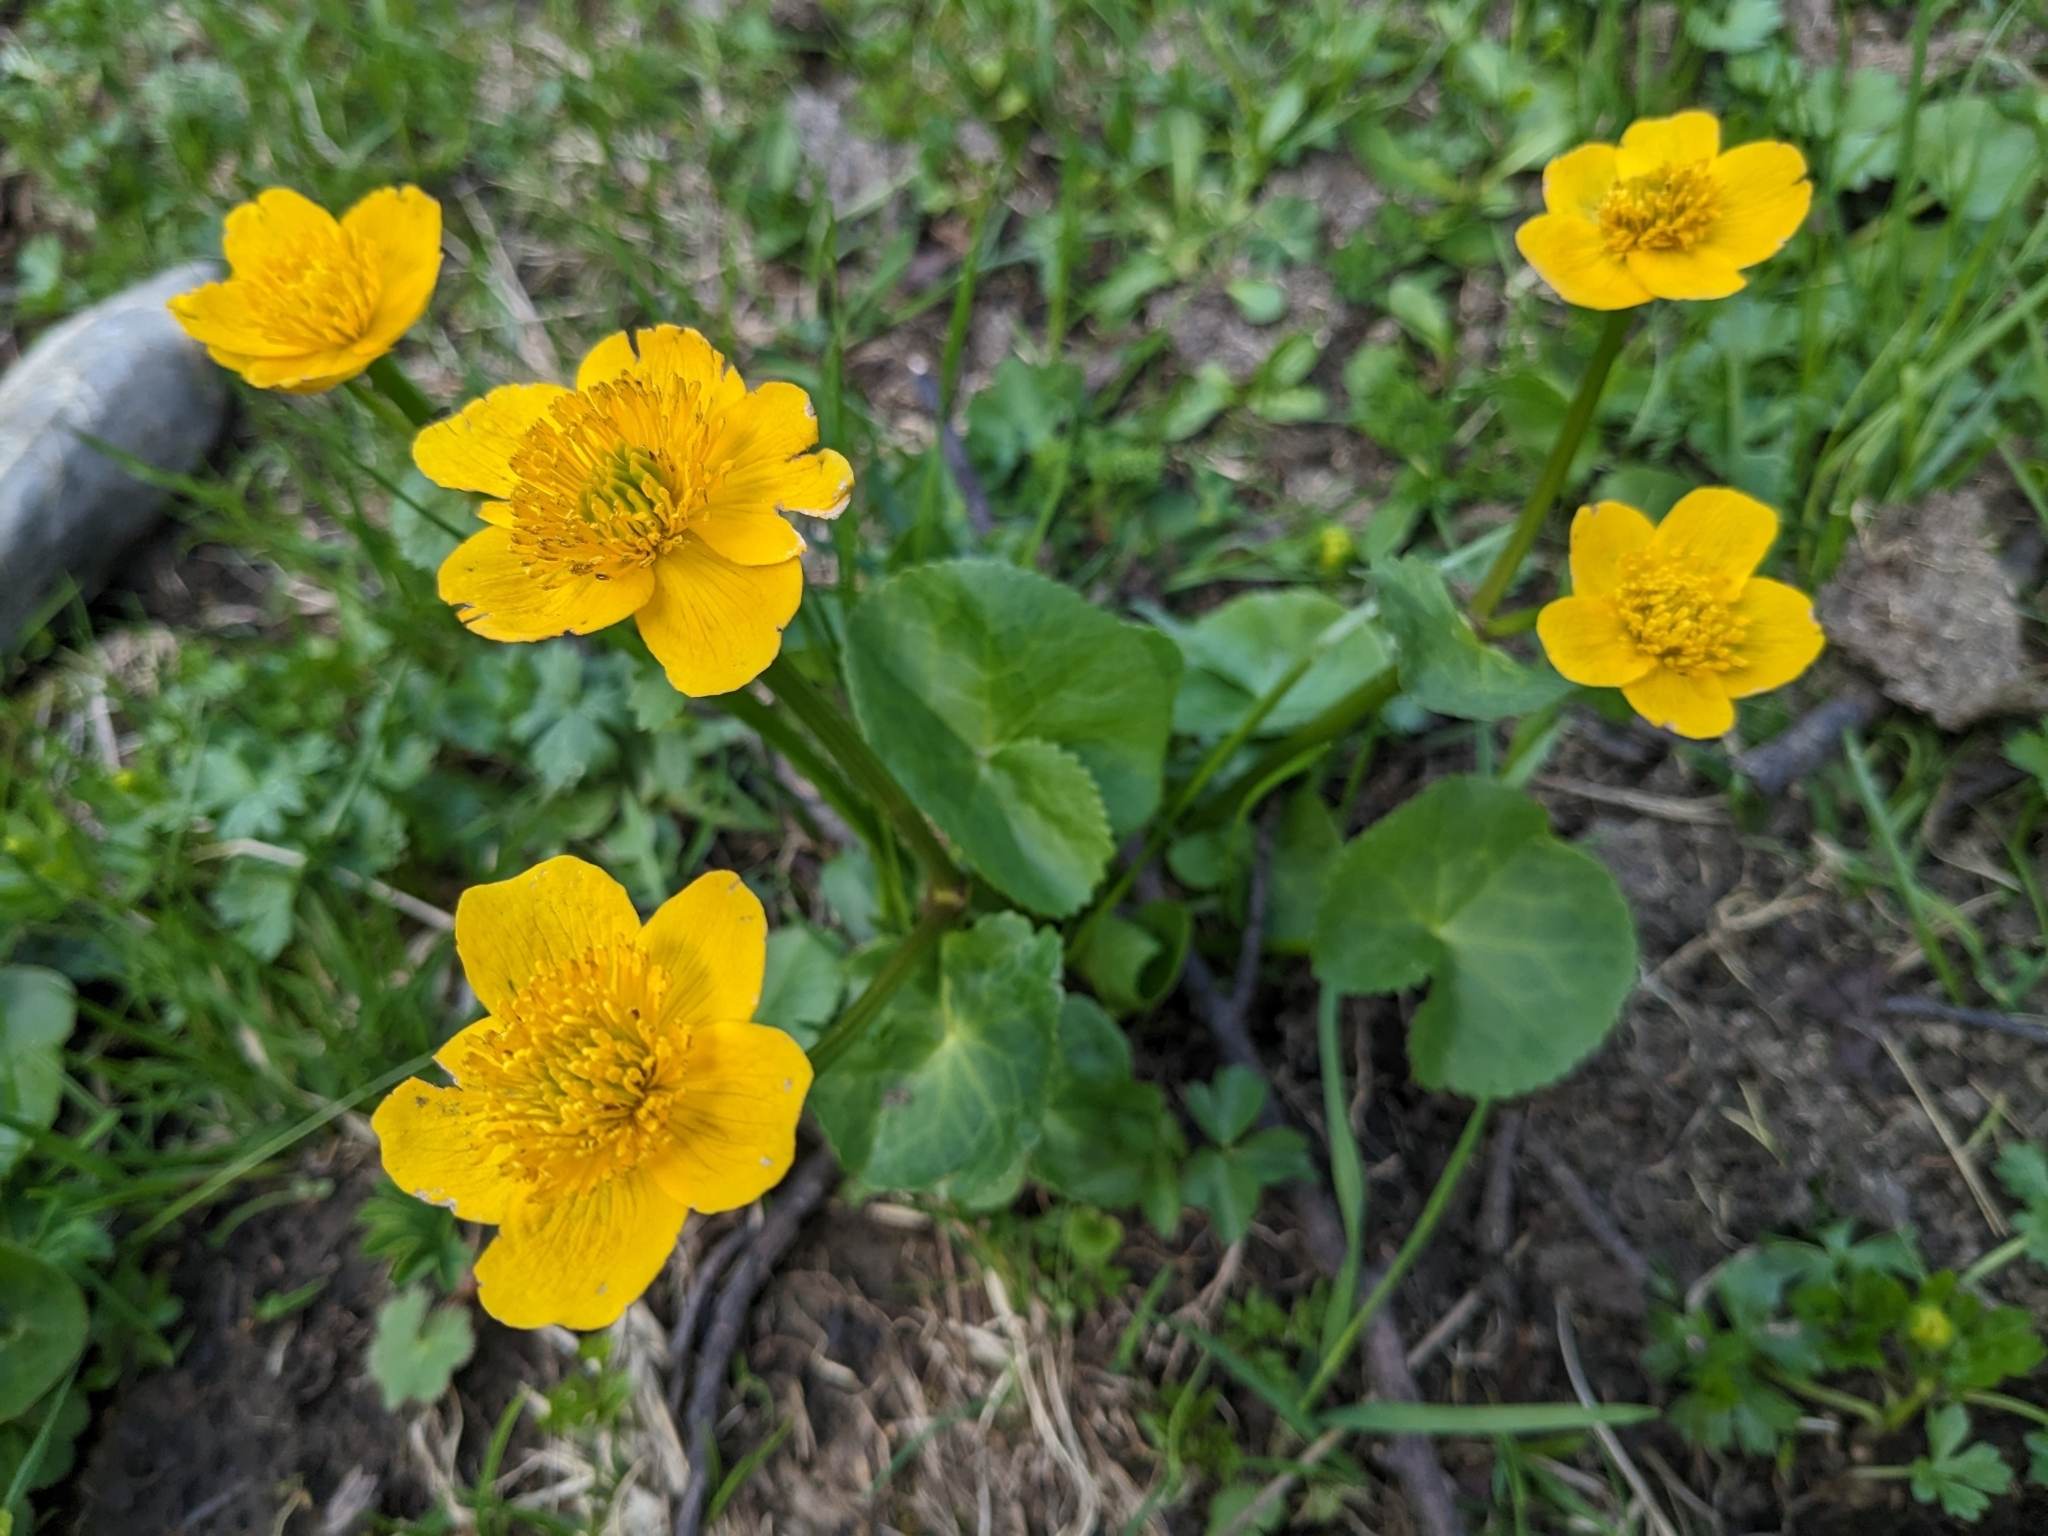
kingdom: Plantae
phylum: Tracheophyta
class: Magnoliopsida
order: Ranunculales
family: Ranunculaceae
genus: Caltha
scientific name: Caltha palustris
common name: Marsh marigold
